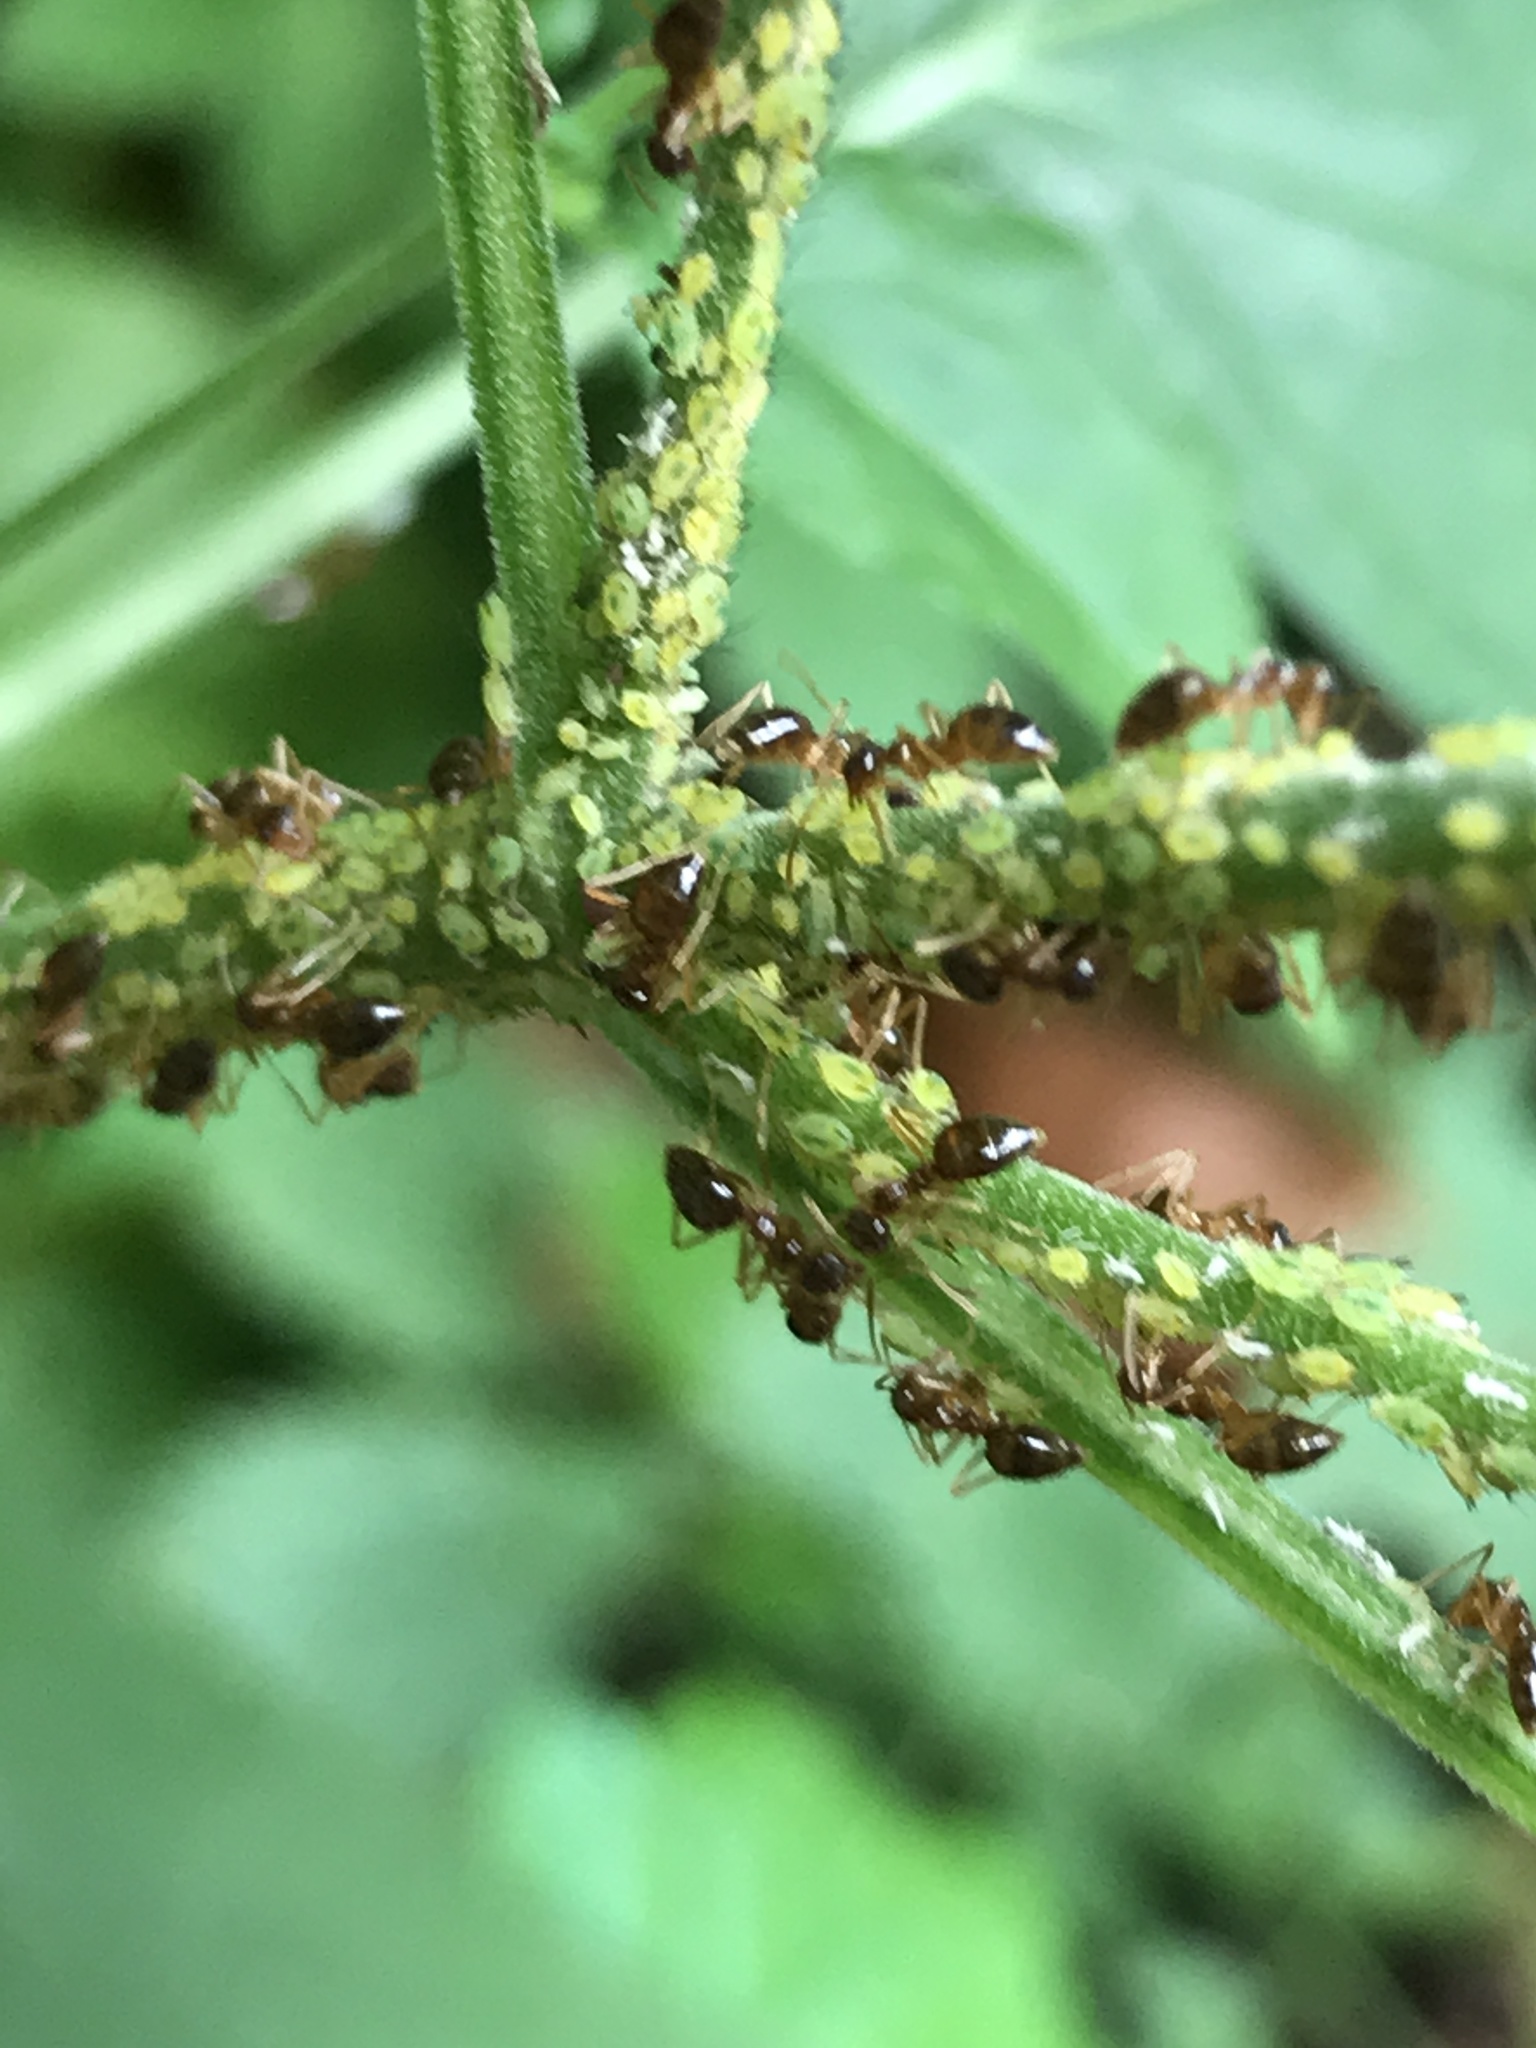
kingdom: Animalia
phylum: Arthropoda
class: Insecta
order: Hymenoptera
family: Formicidae
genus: Prenolepis
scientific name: Prenolepis imparis
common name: Small honey ant
